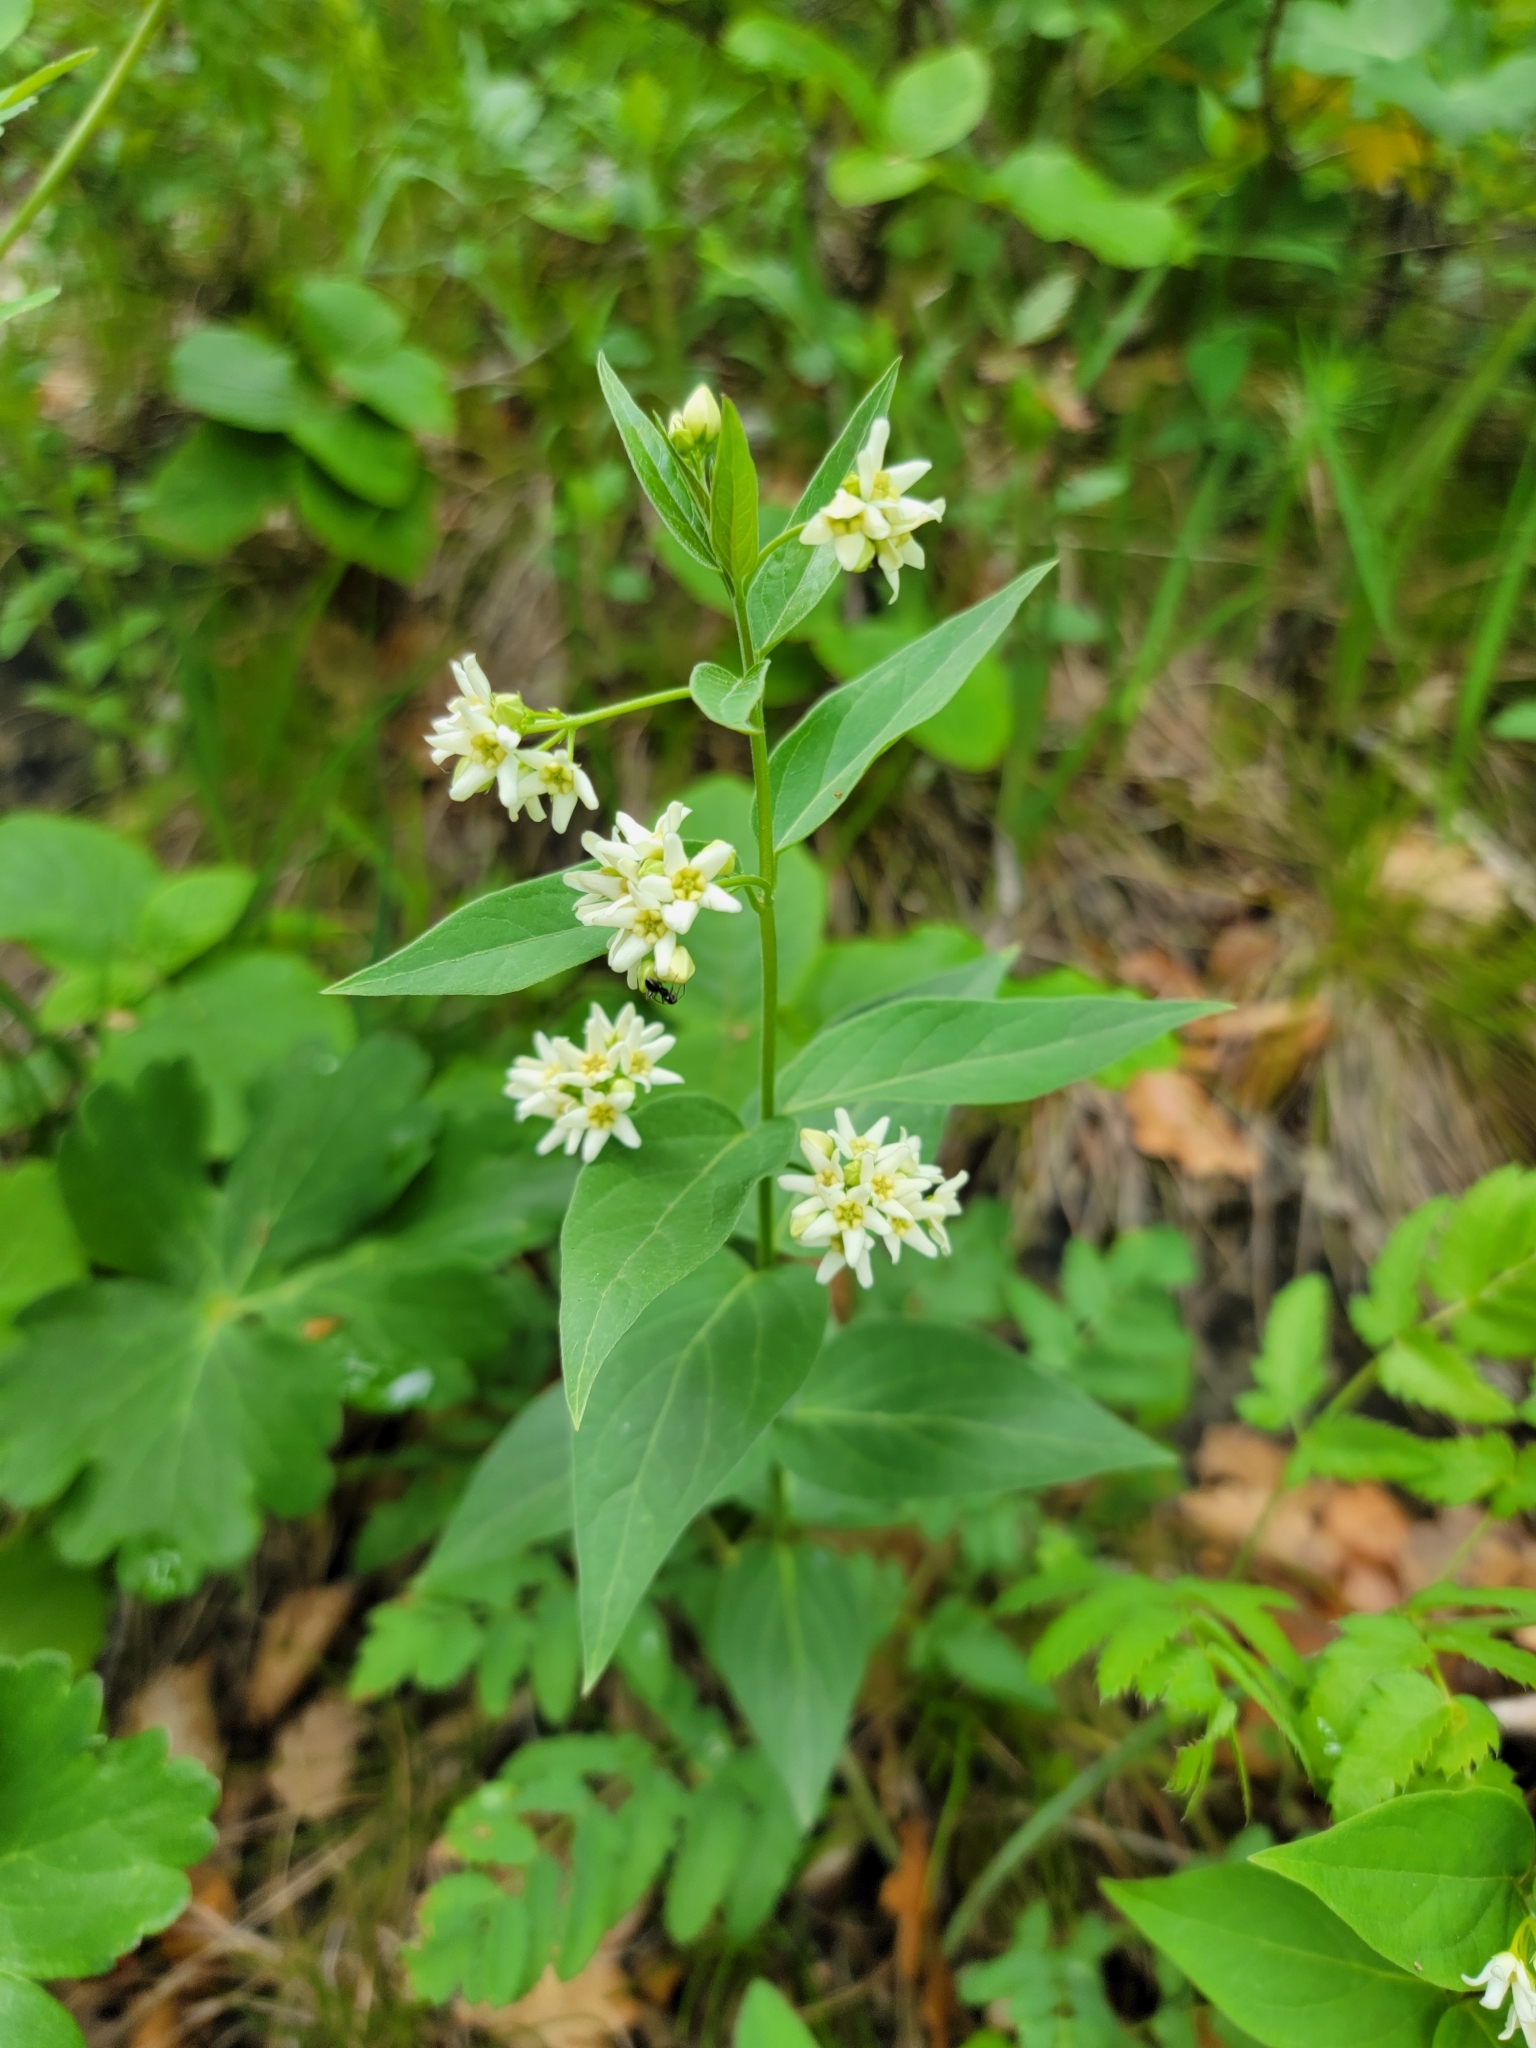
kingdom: Plantae
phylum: Tracheophyta
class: Magnoliopsida
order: Gentianales
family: Apocynaceae
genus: Vincetoxicum
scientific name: Vincetoxicum hirundinaria
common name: White swallowwort
